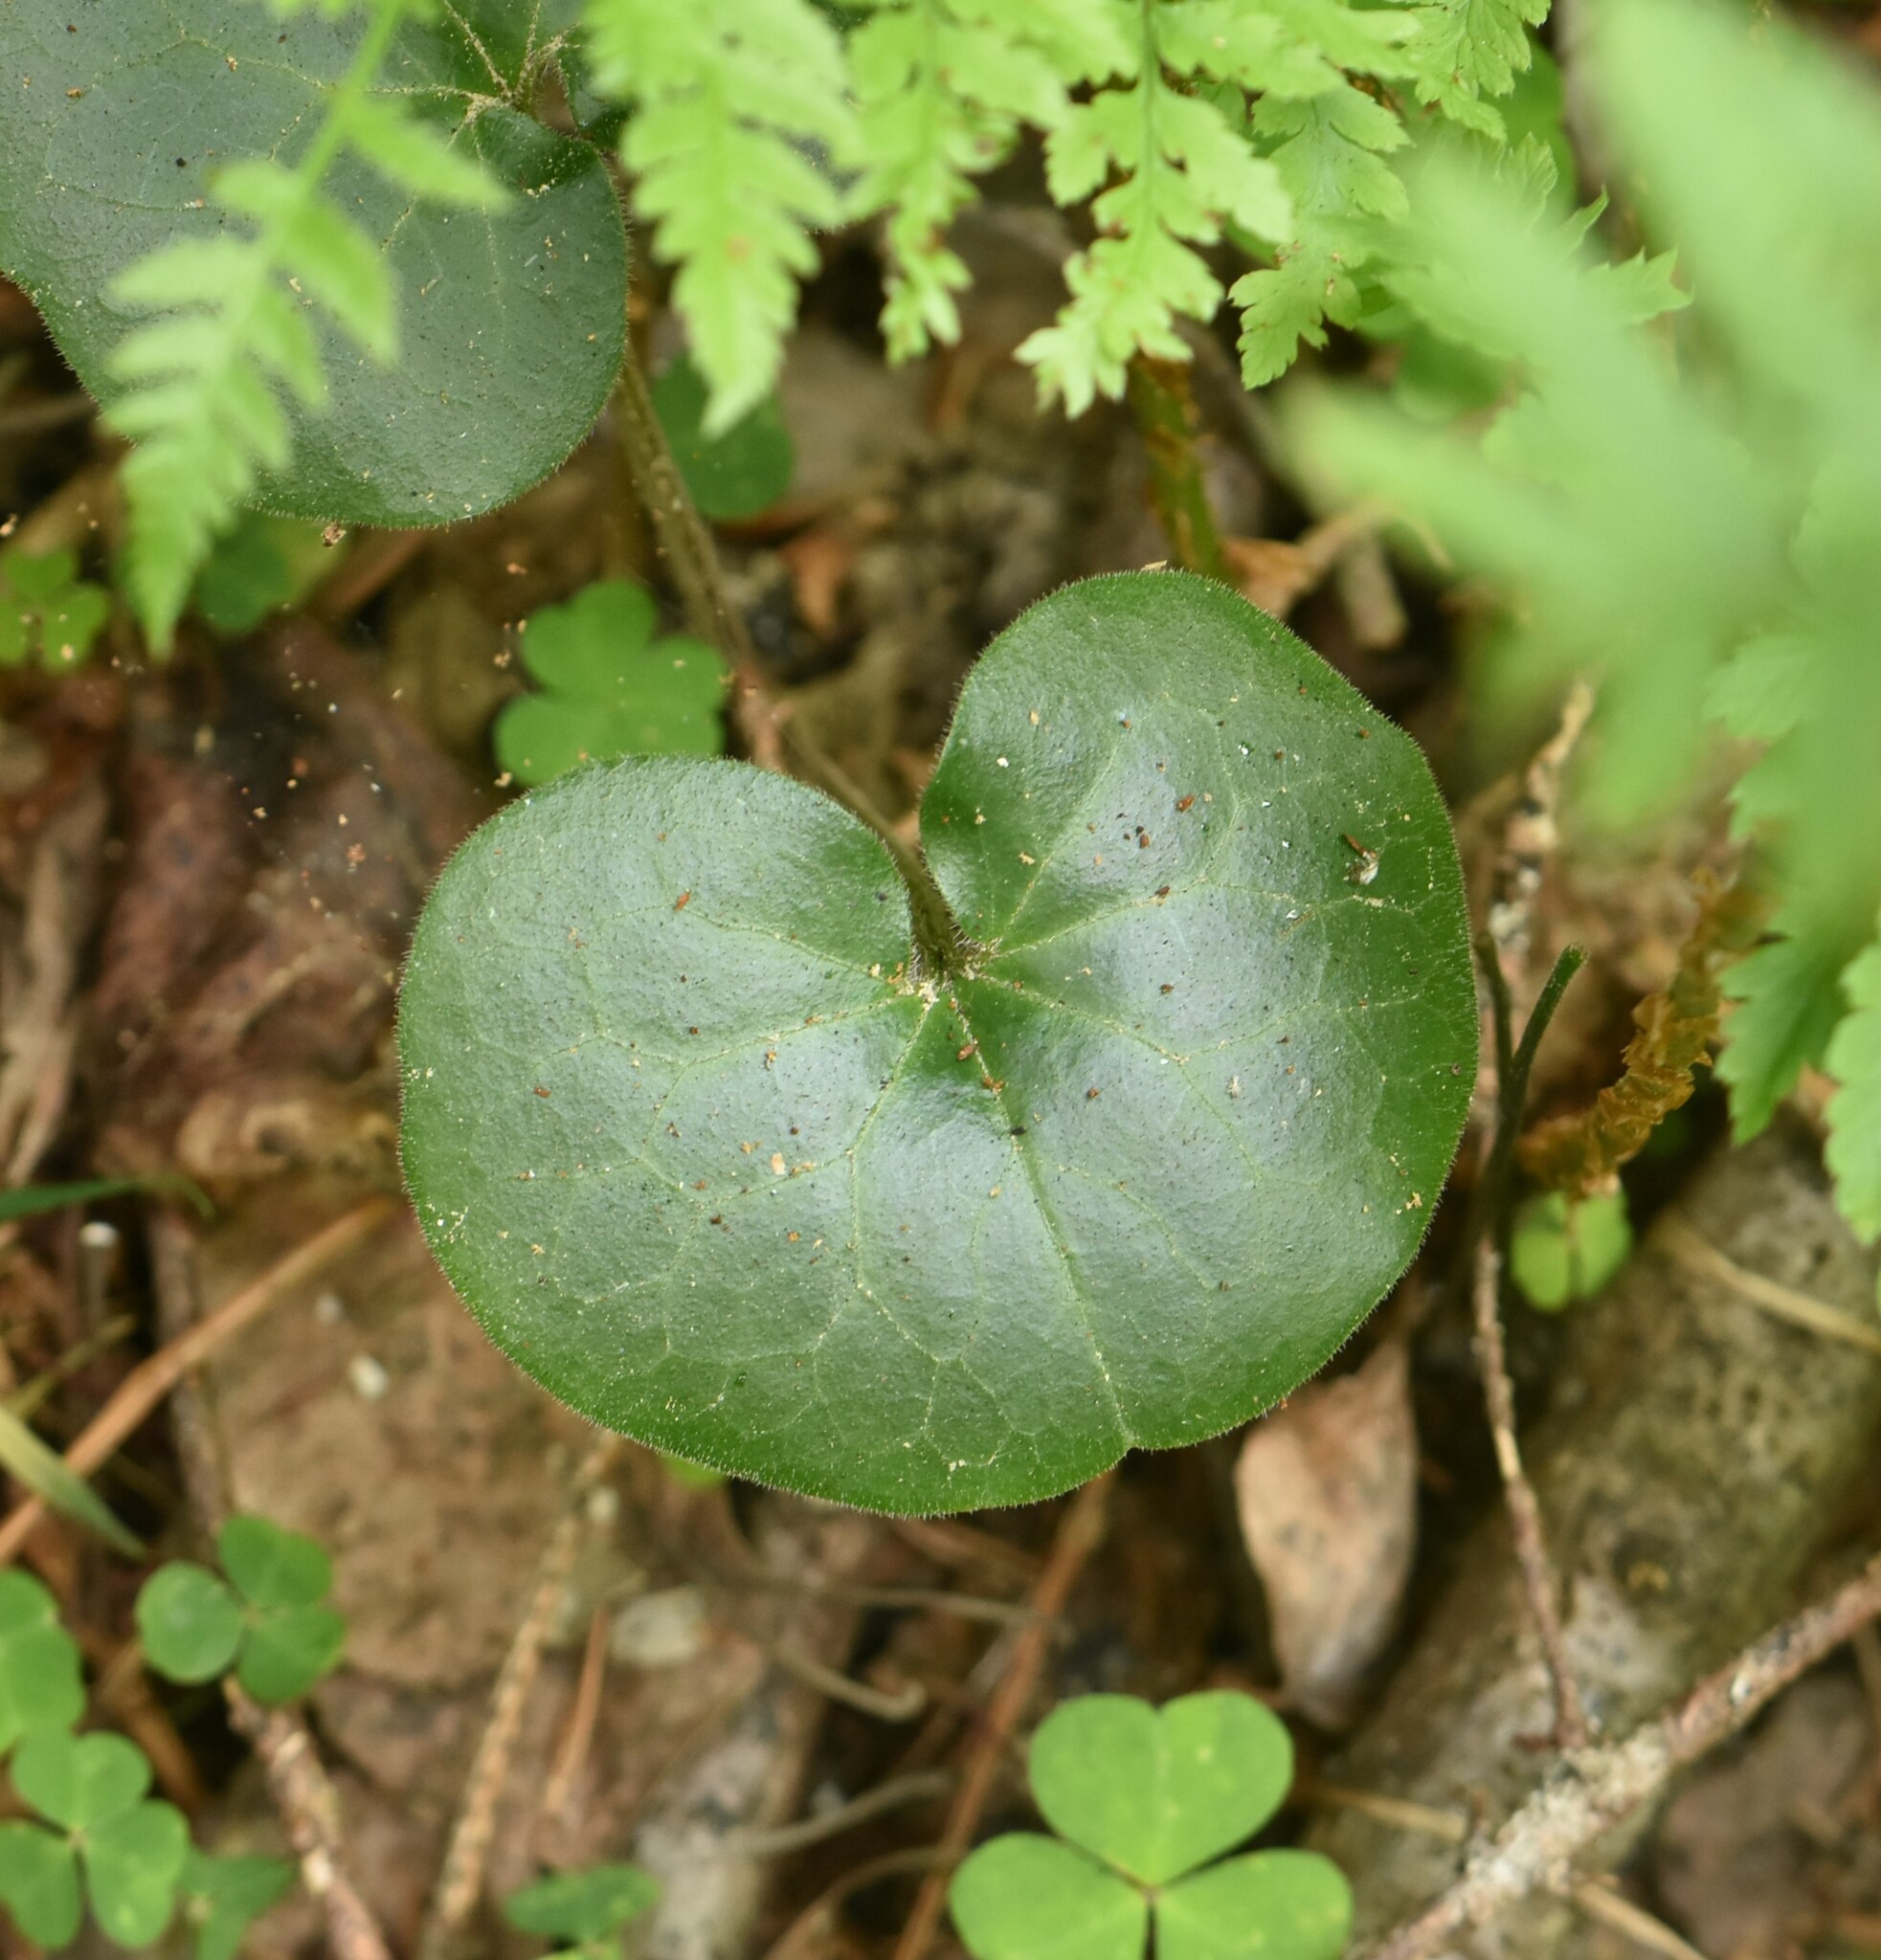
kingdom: Plantae
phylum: Tracheophyta
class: Magnoliopsida
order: Piperales
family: Aristolochiaceae
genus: Asarum
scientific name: Asarum europaeum
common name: Asarabacca
